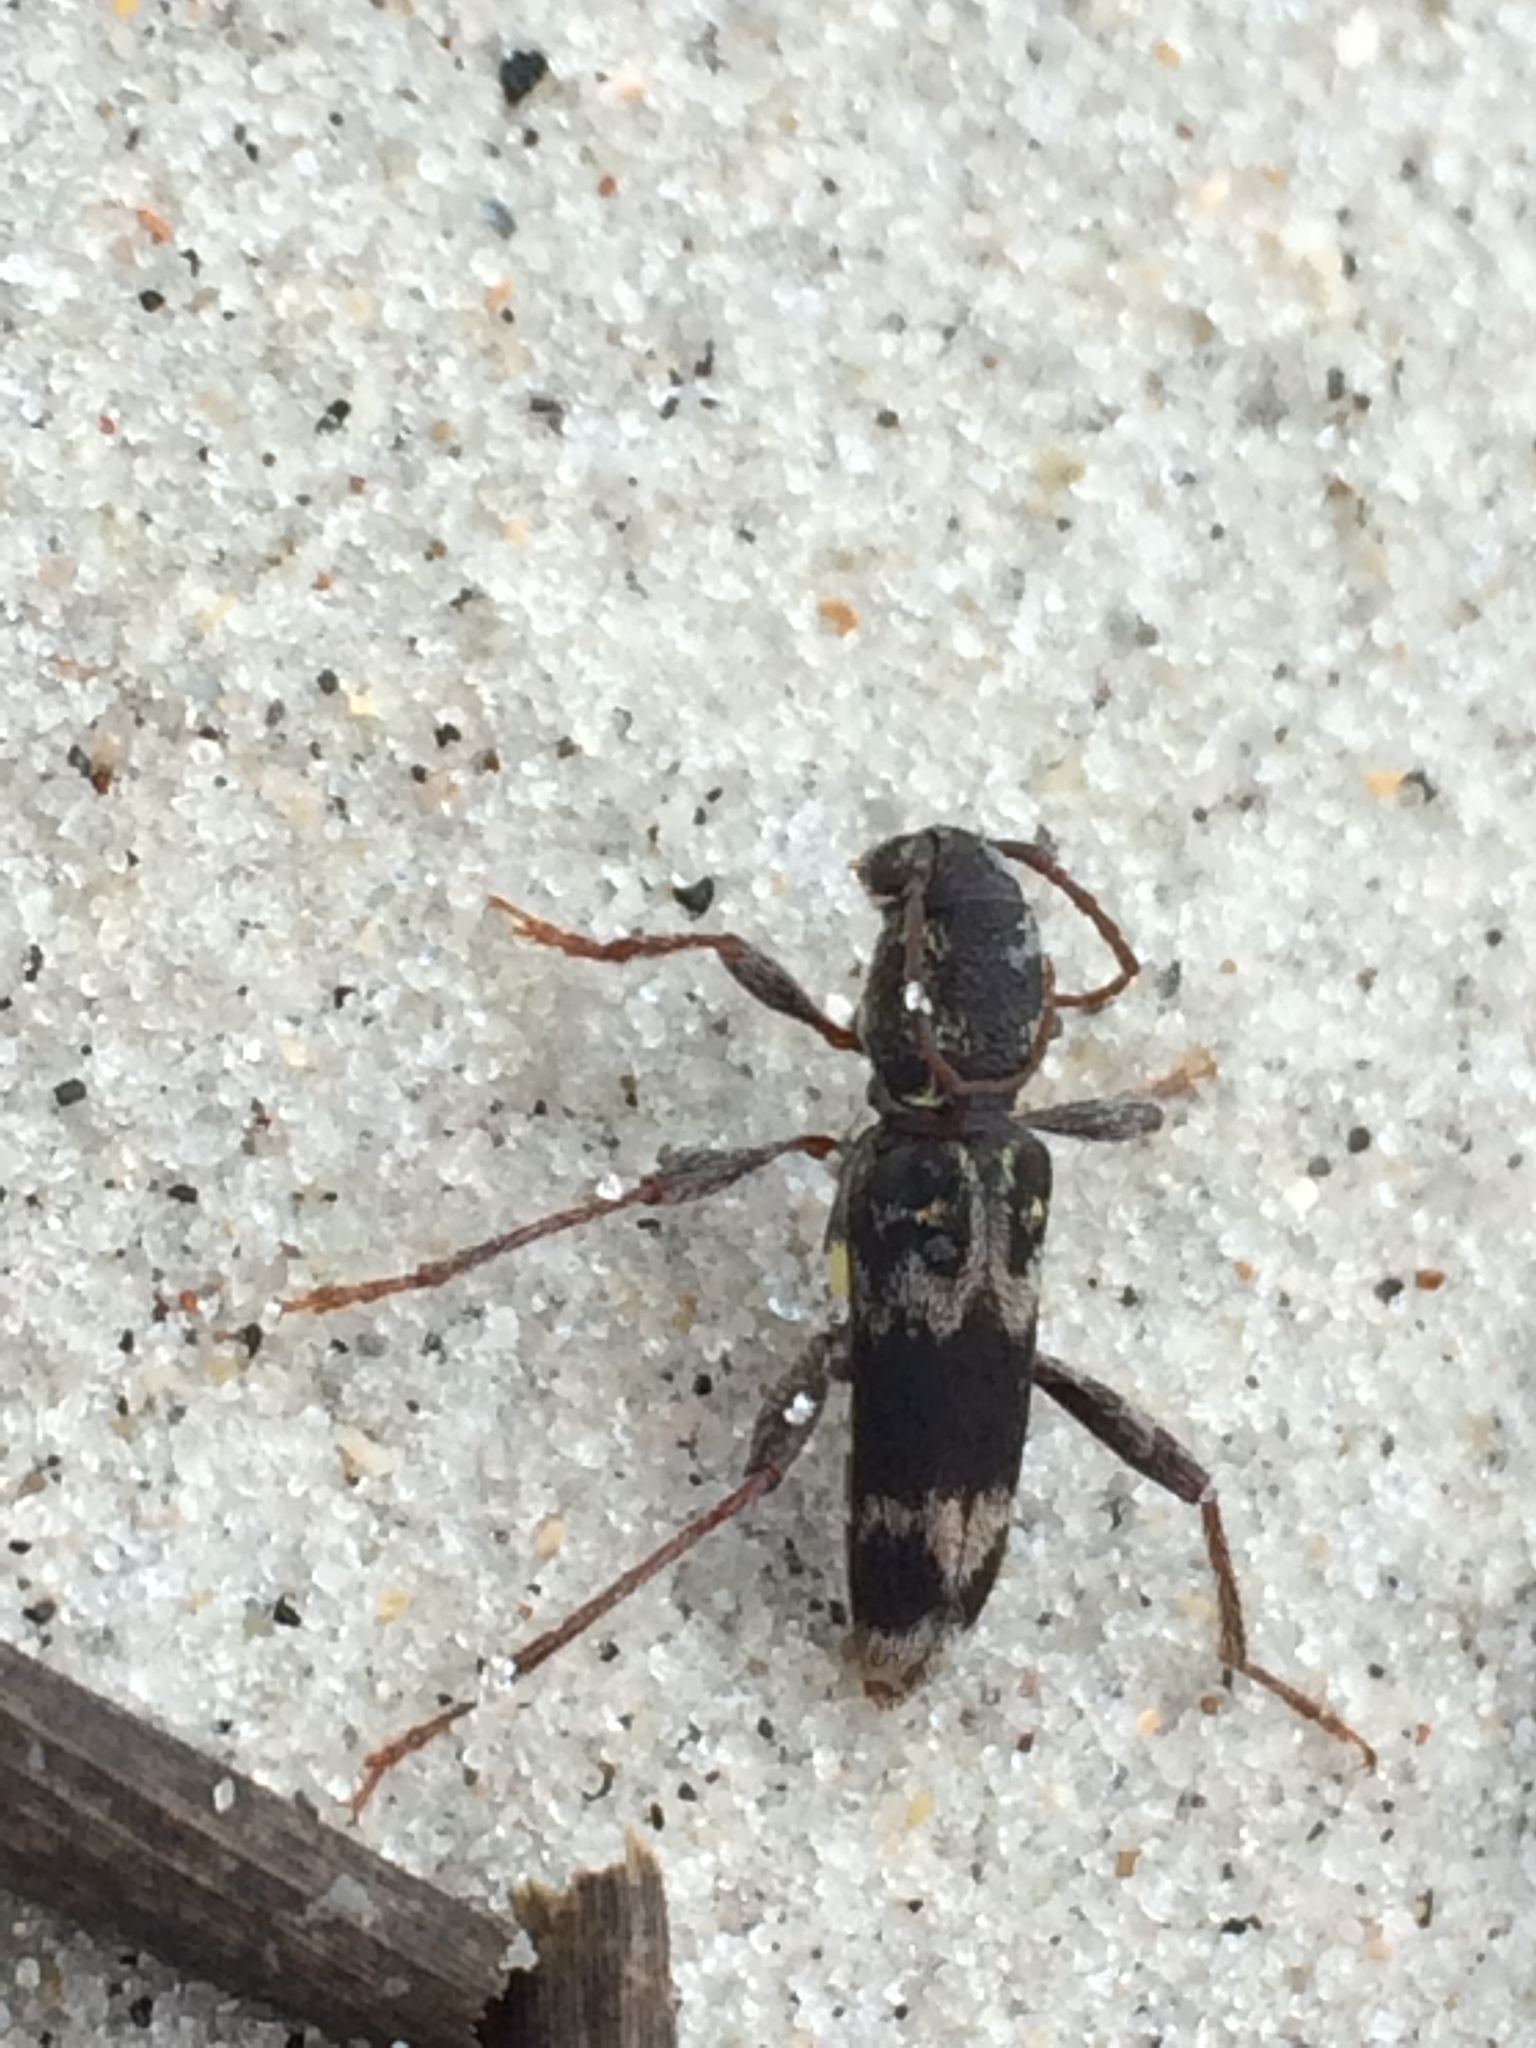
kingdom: Animalia
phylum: Arthropoda
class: Insecta
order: Coleoptera
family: Cerambycidae
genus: Xylotrechus
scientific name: Xylotrechus colonus
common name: Long-horned beetle
